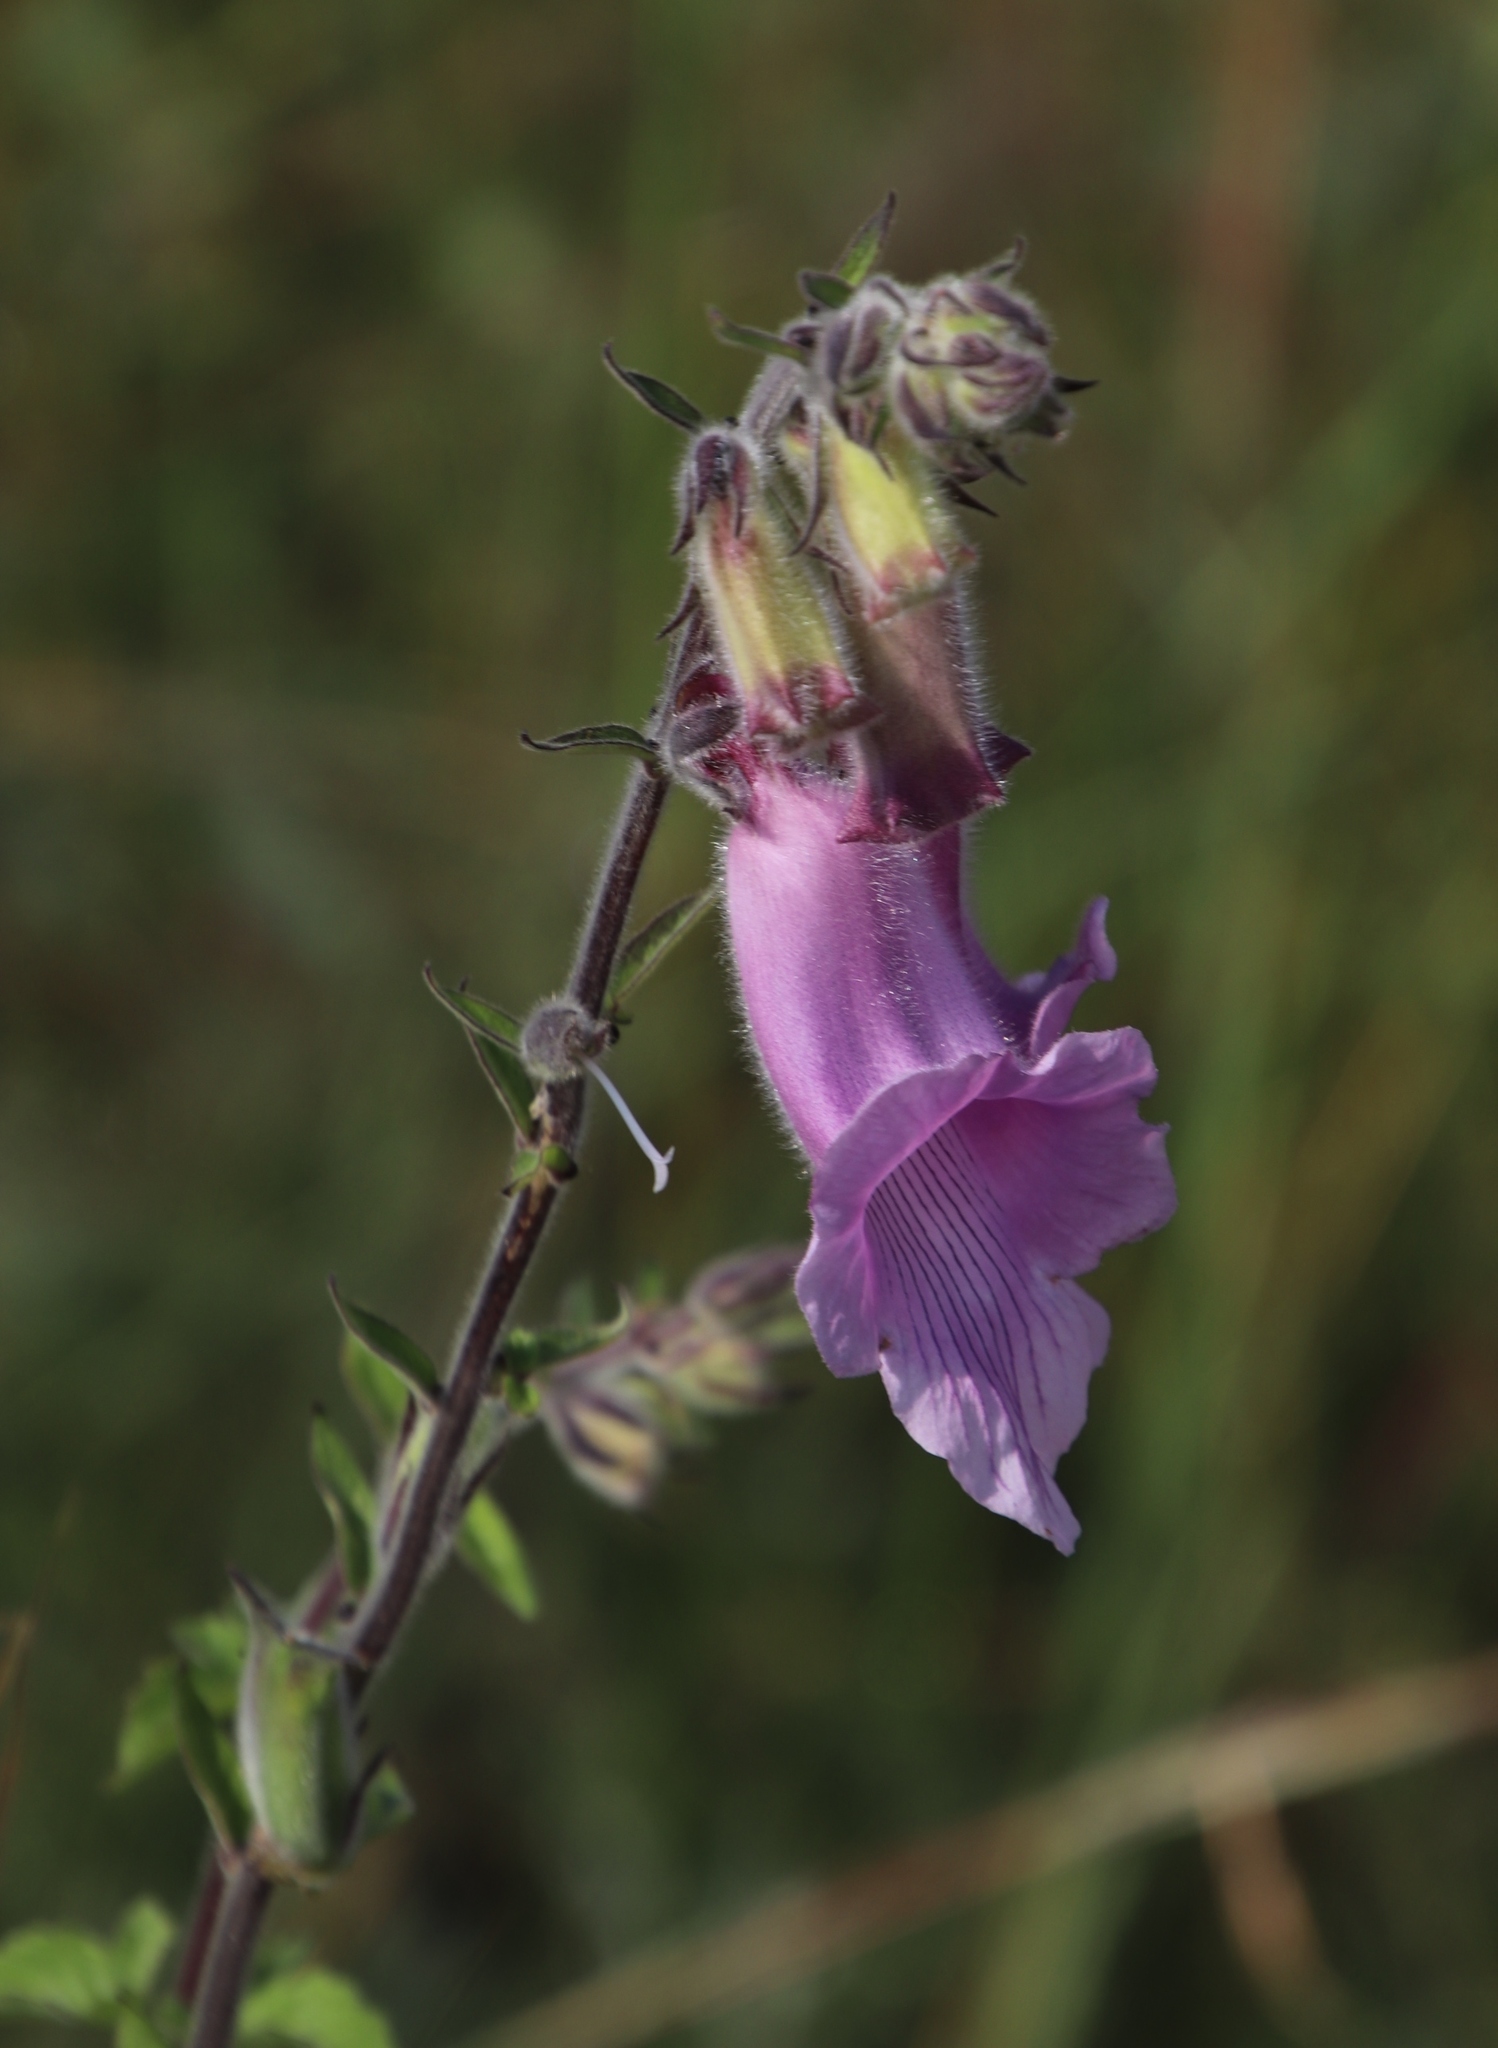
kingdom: Plantae
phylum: Tracheophyta
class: Magnoliopsida
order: Lamiales
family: Pedaliaceae
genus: Sesamum
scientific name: Sesamum trilobum
